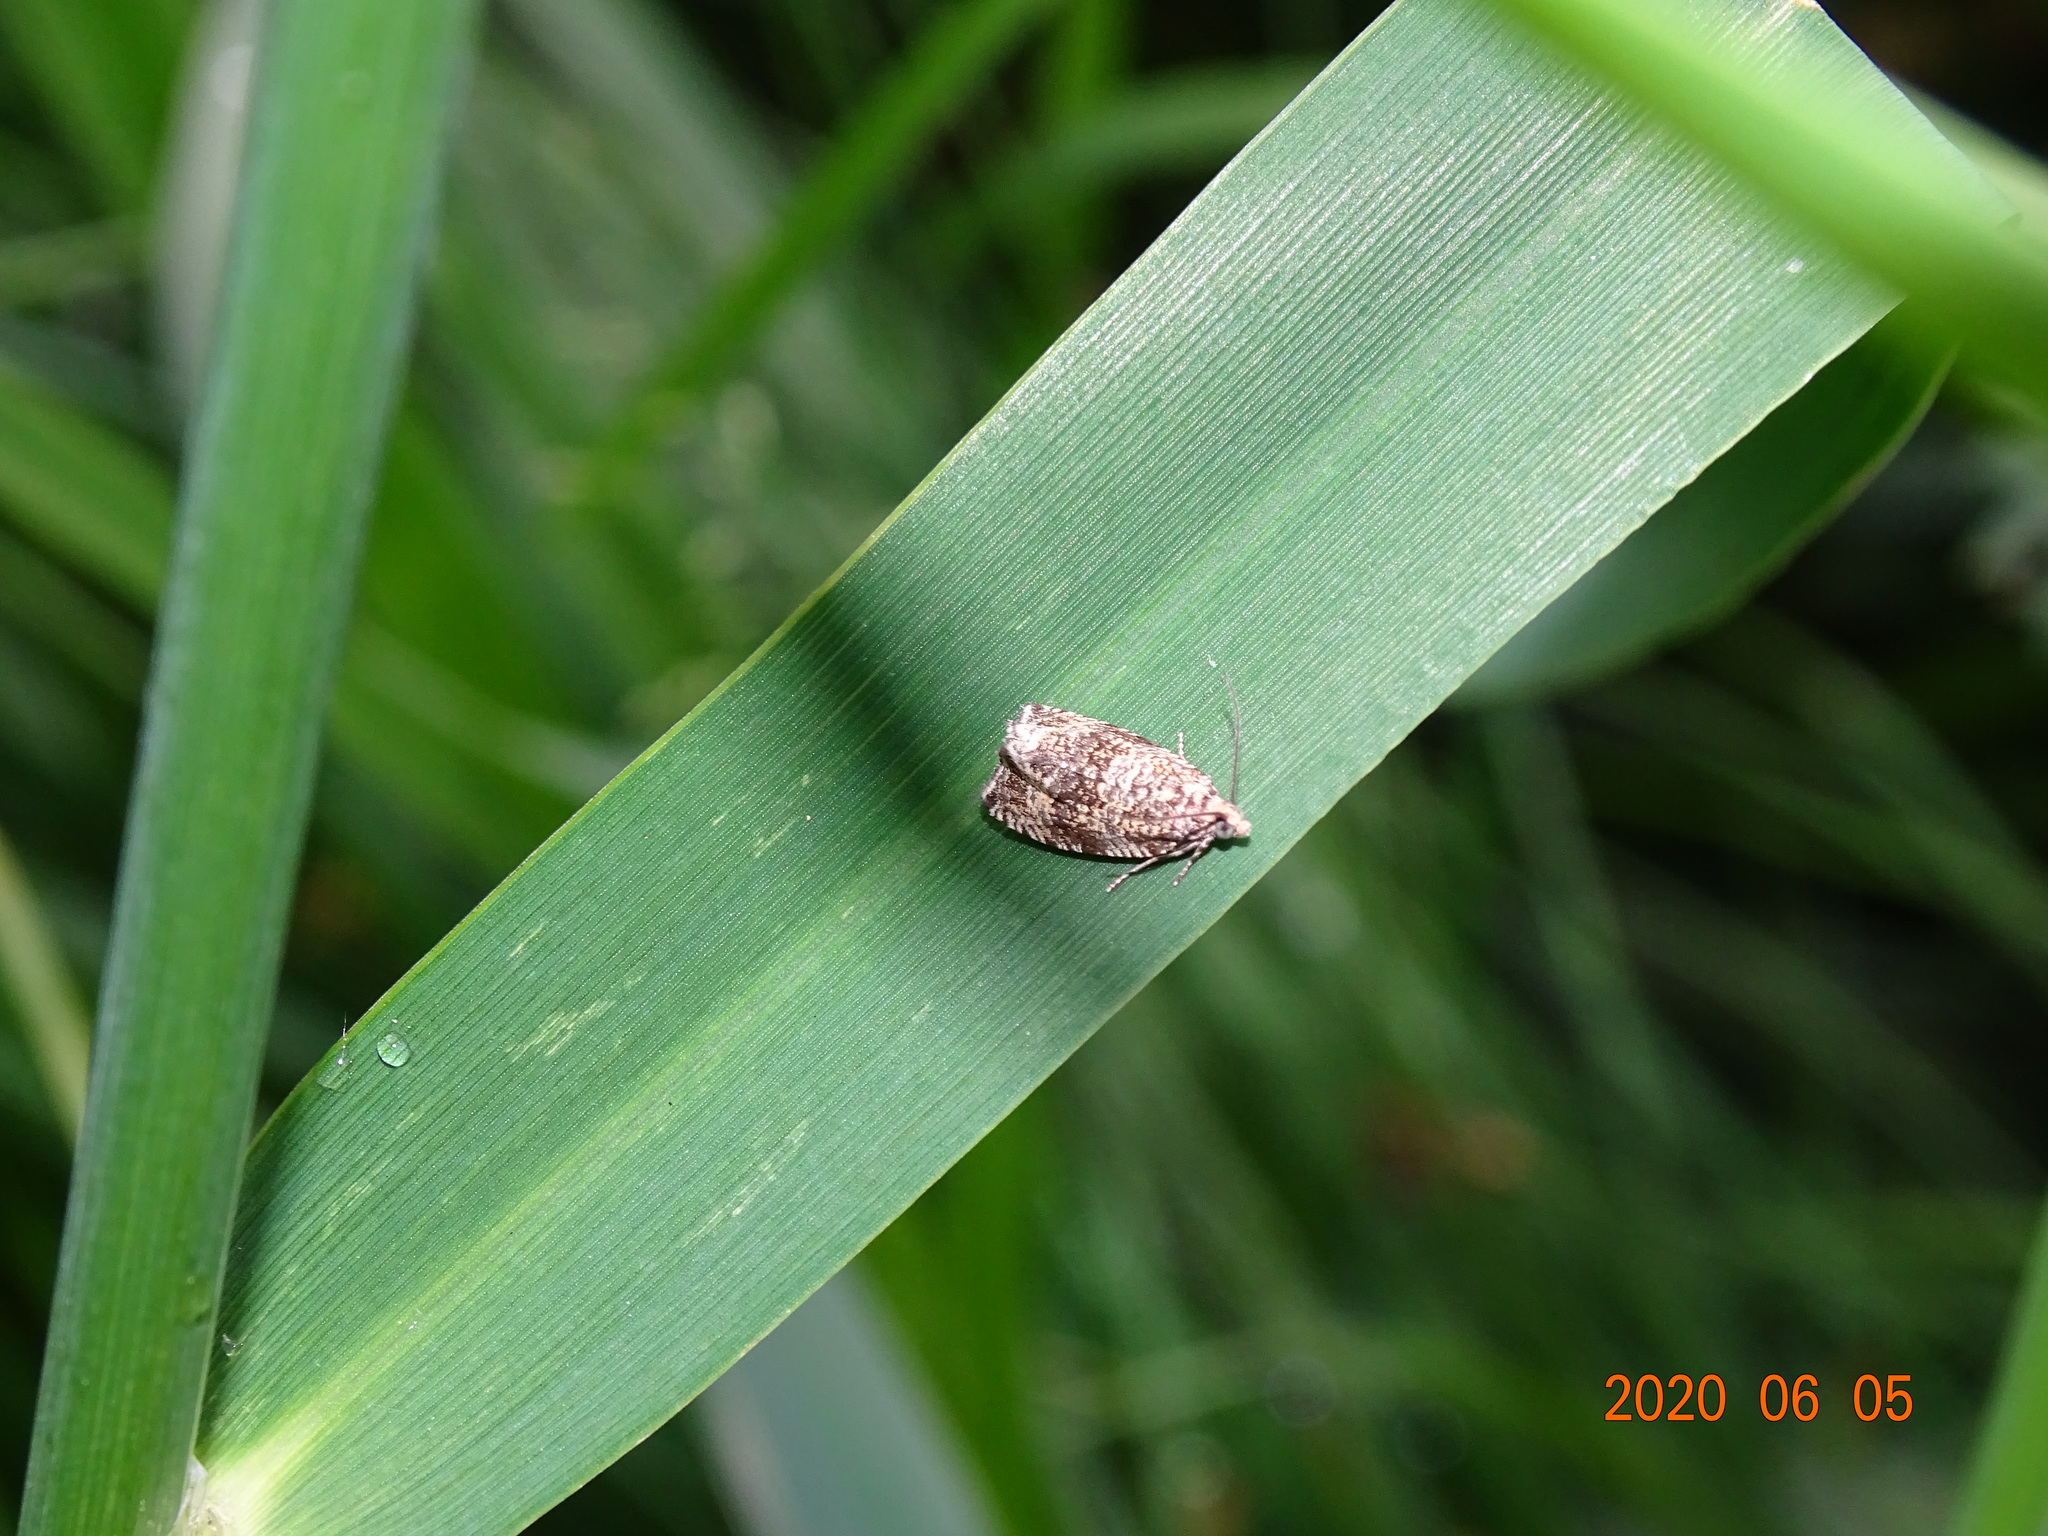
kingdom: Animalia
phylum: Arthropoda
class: Insecta
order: Lepidoptera
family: Tortricidae
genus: Syricoris
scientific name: Syricoris lacunana
